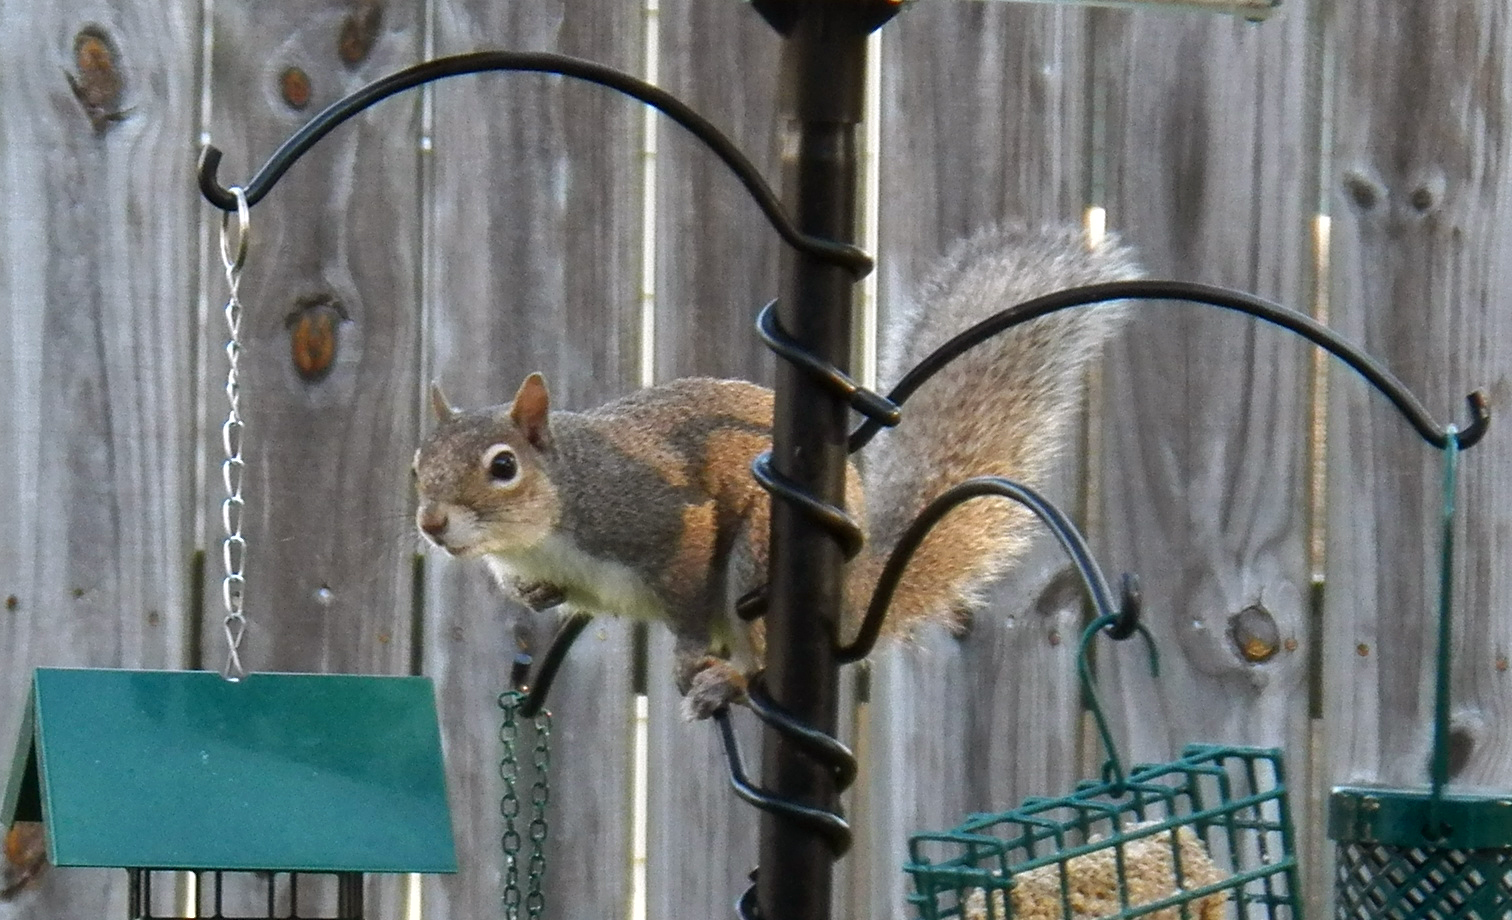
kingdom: Animalia
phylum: Chordata
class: Mammalia
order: Rodentia
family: Sciuridae
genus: Sciurus
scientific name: Sciurus carolinensis
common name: Eastern gray squirrel
